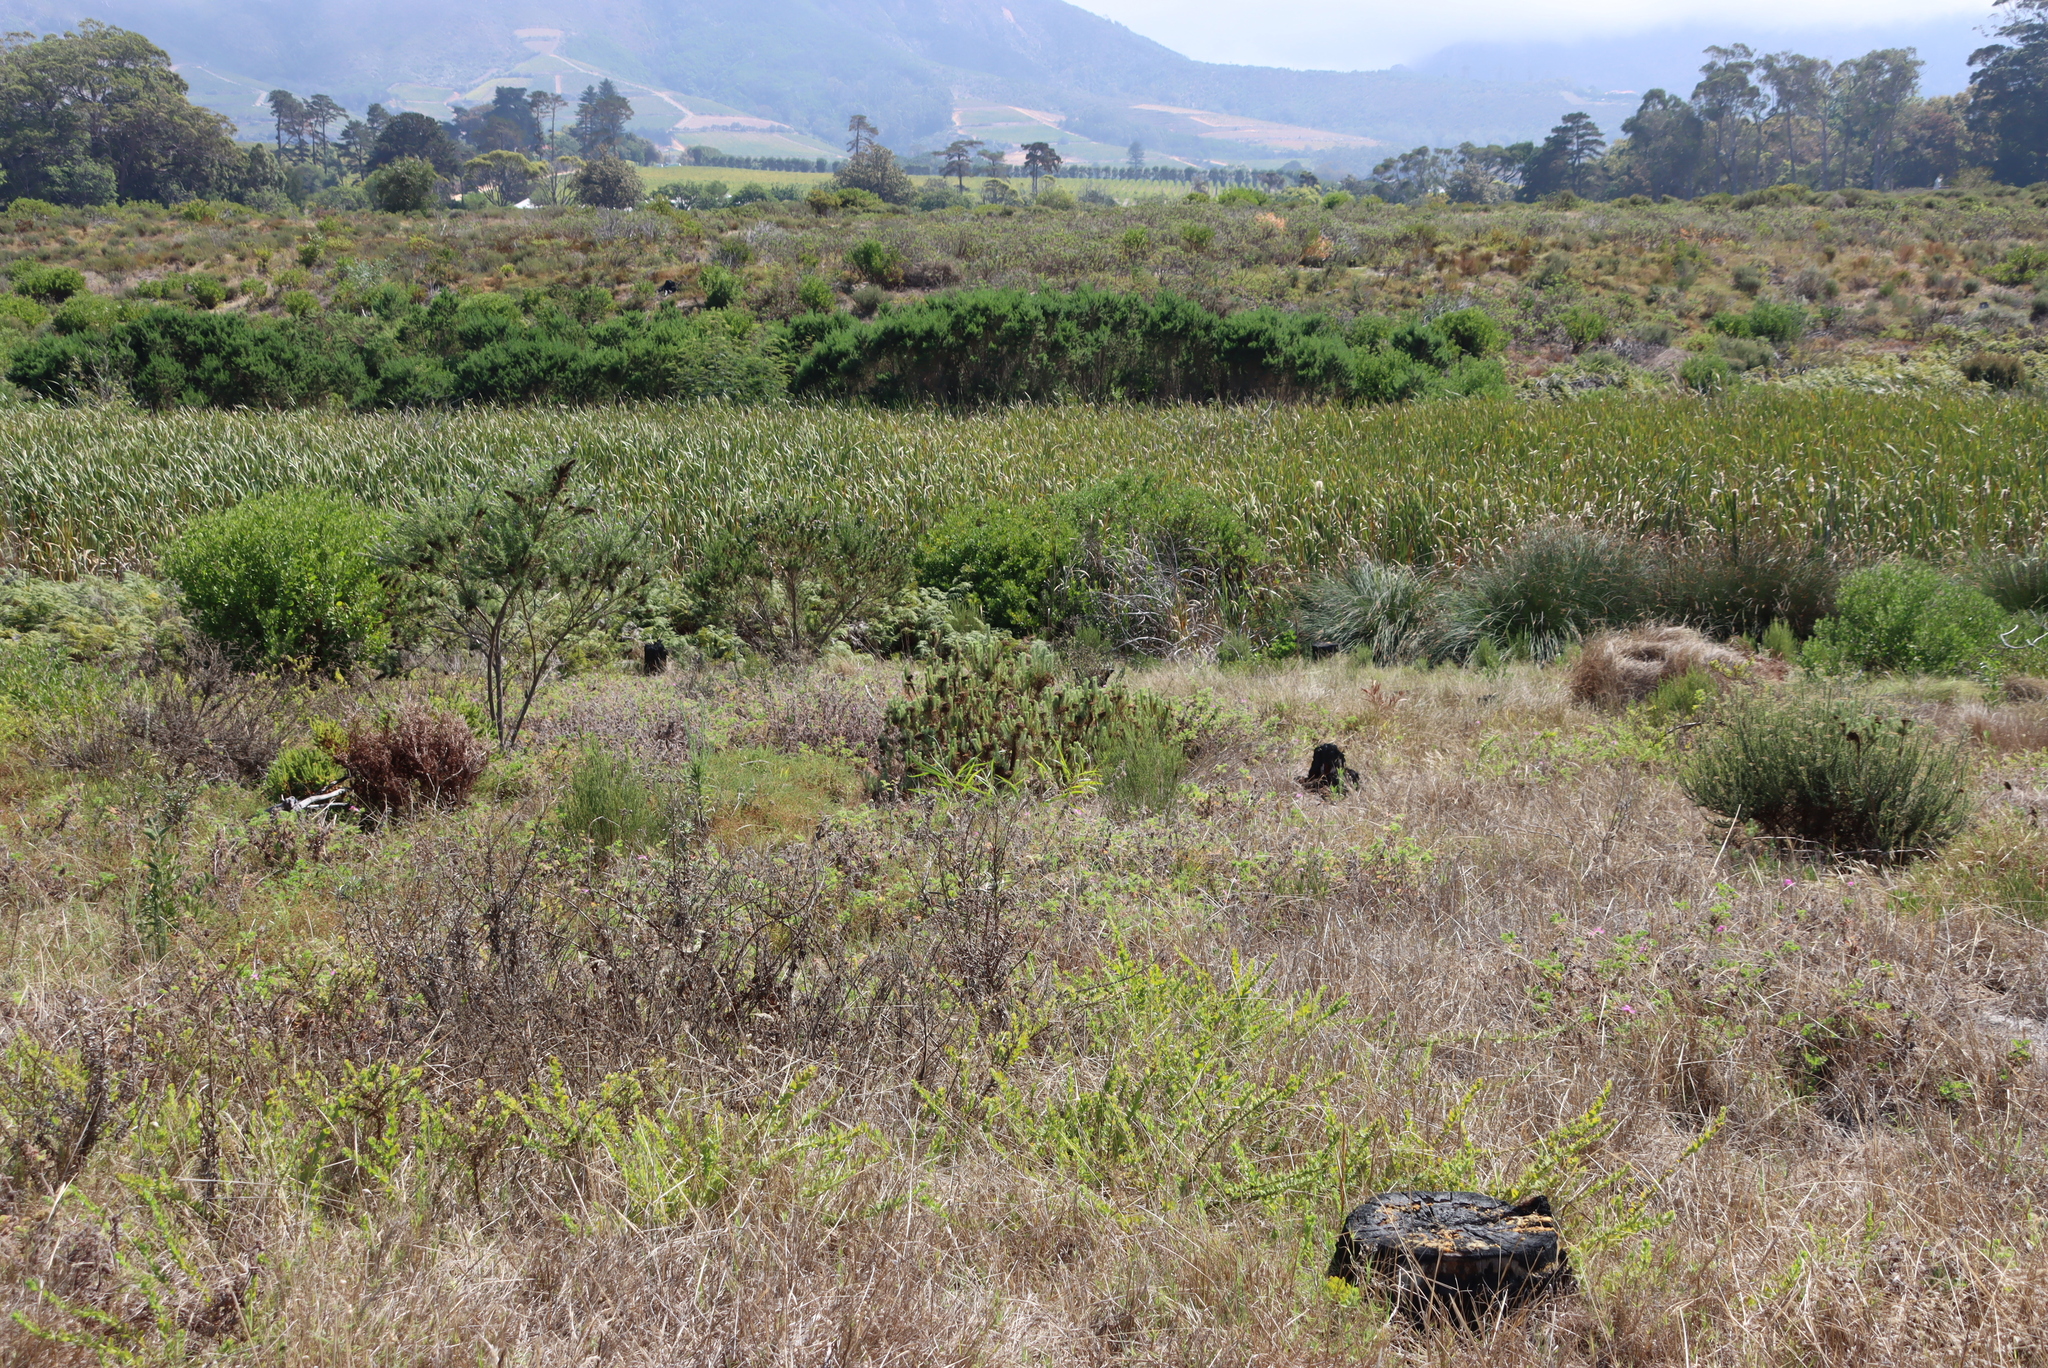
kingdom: Plantae
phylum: Tracheophyta
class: Magnoliopsida
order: Lamiales
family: Scrophulariaceae
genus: Oftia
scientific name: Oftia africana
